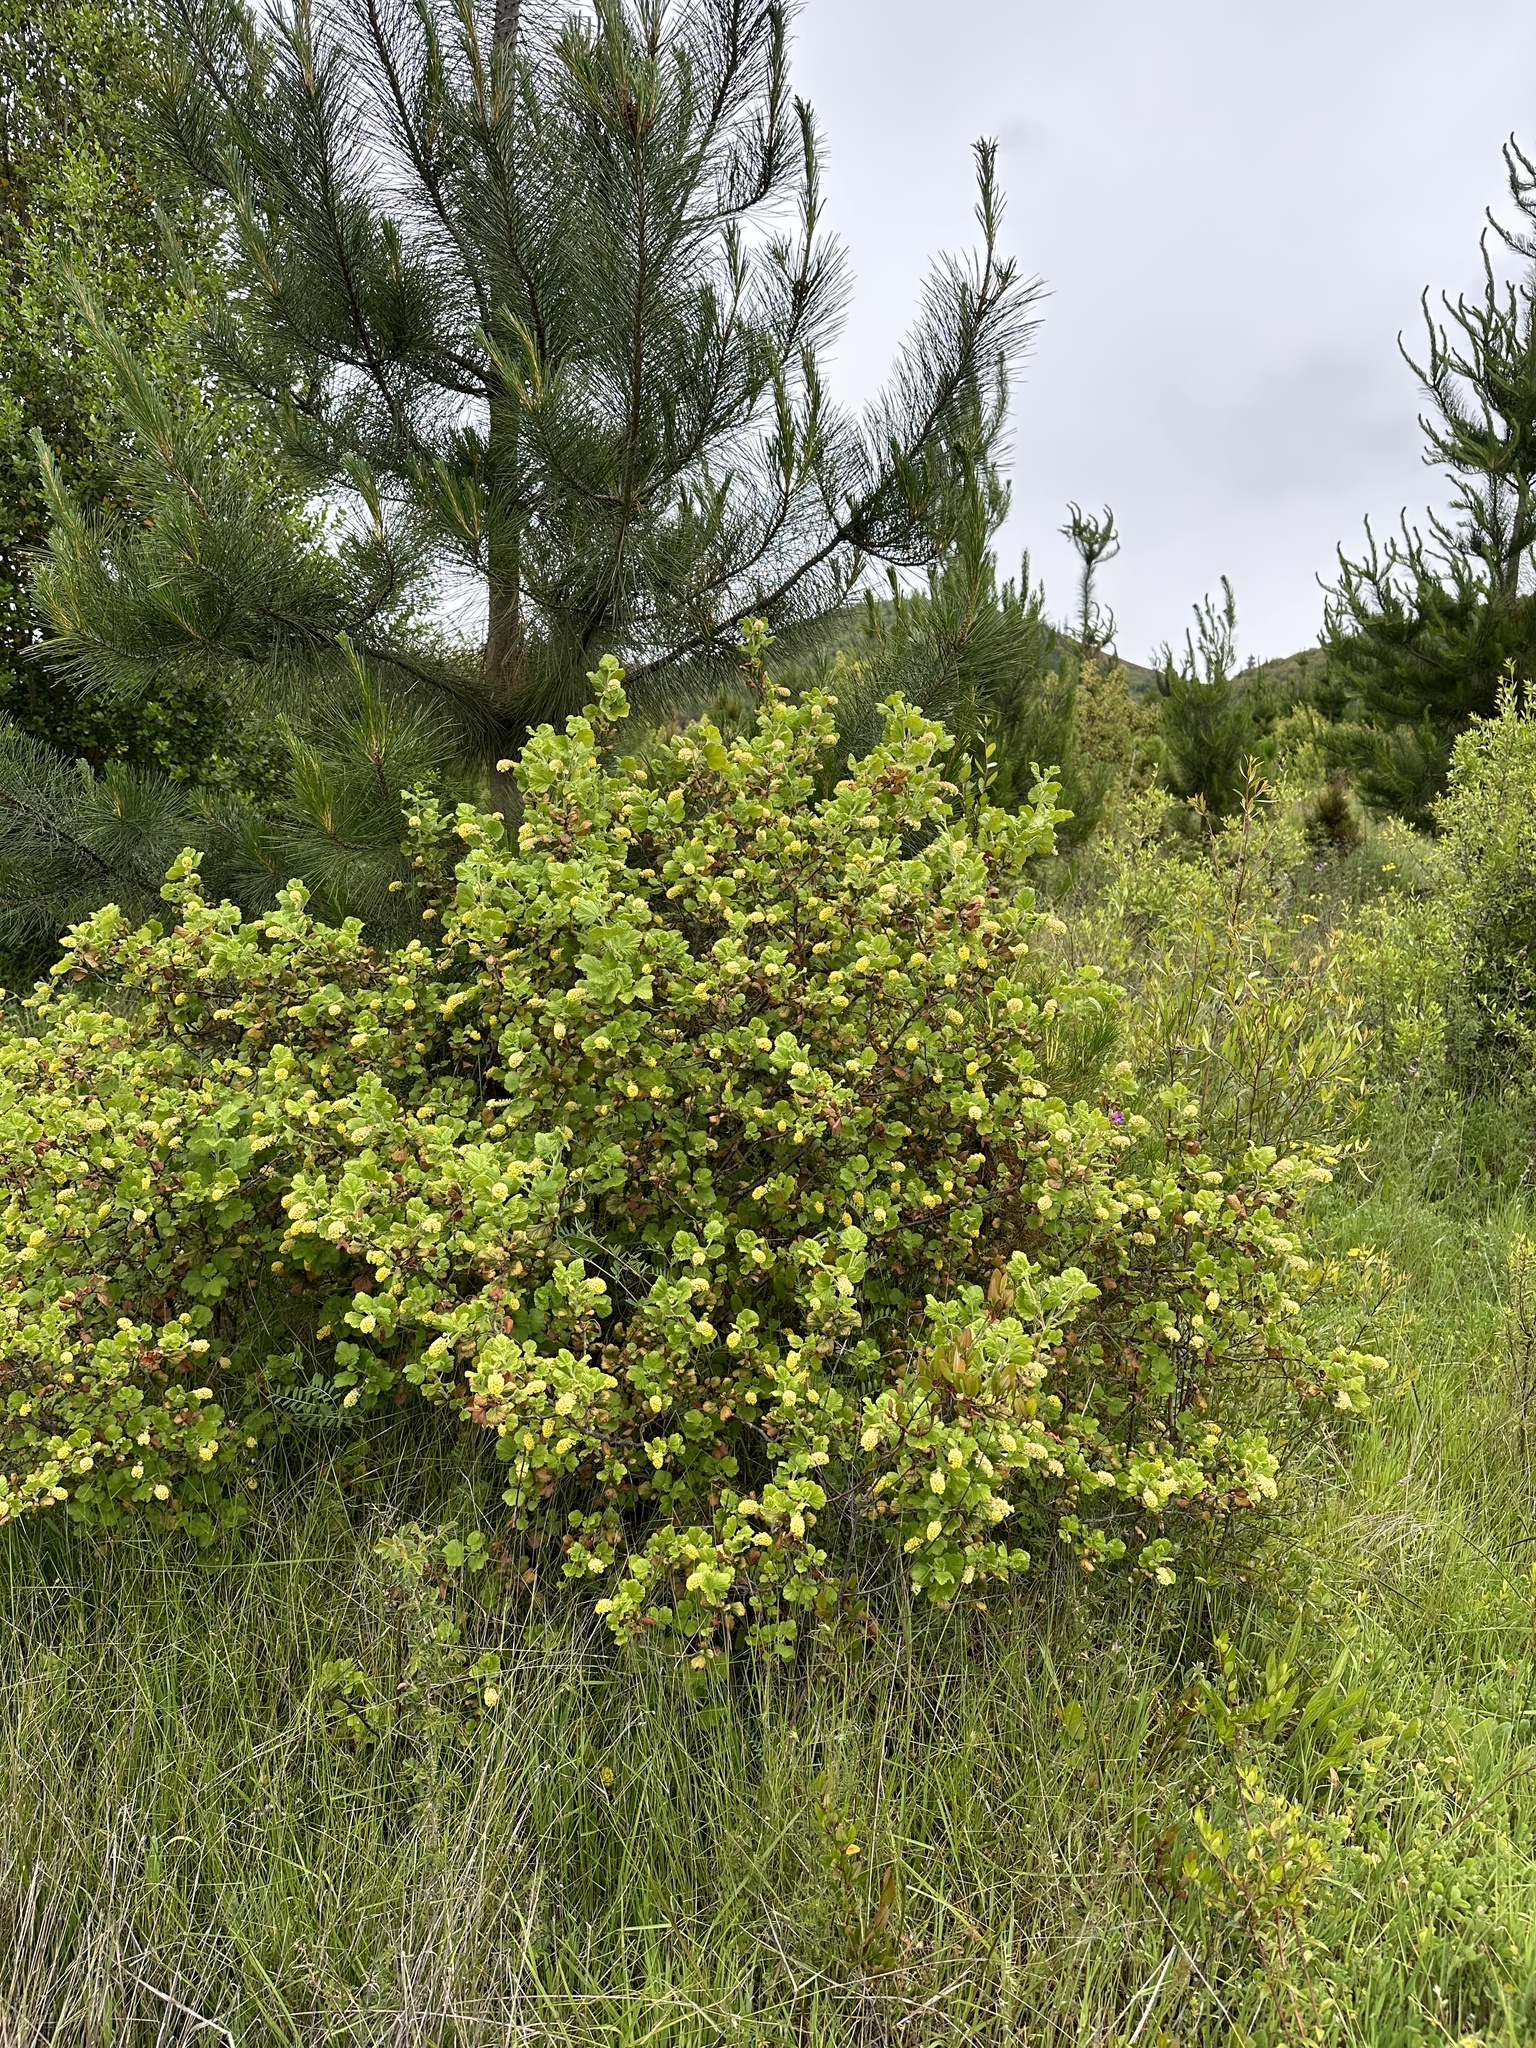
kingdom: Plantae
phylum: Tracheophyta
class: Magnoliopsida
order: Saxifragales
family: Grossulariaceae
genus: Ribes
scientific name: Ribes trilobum
